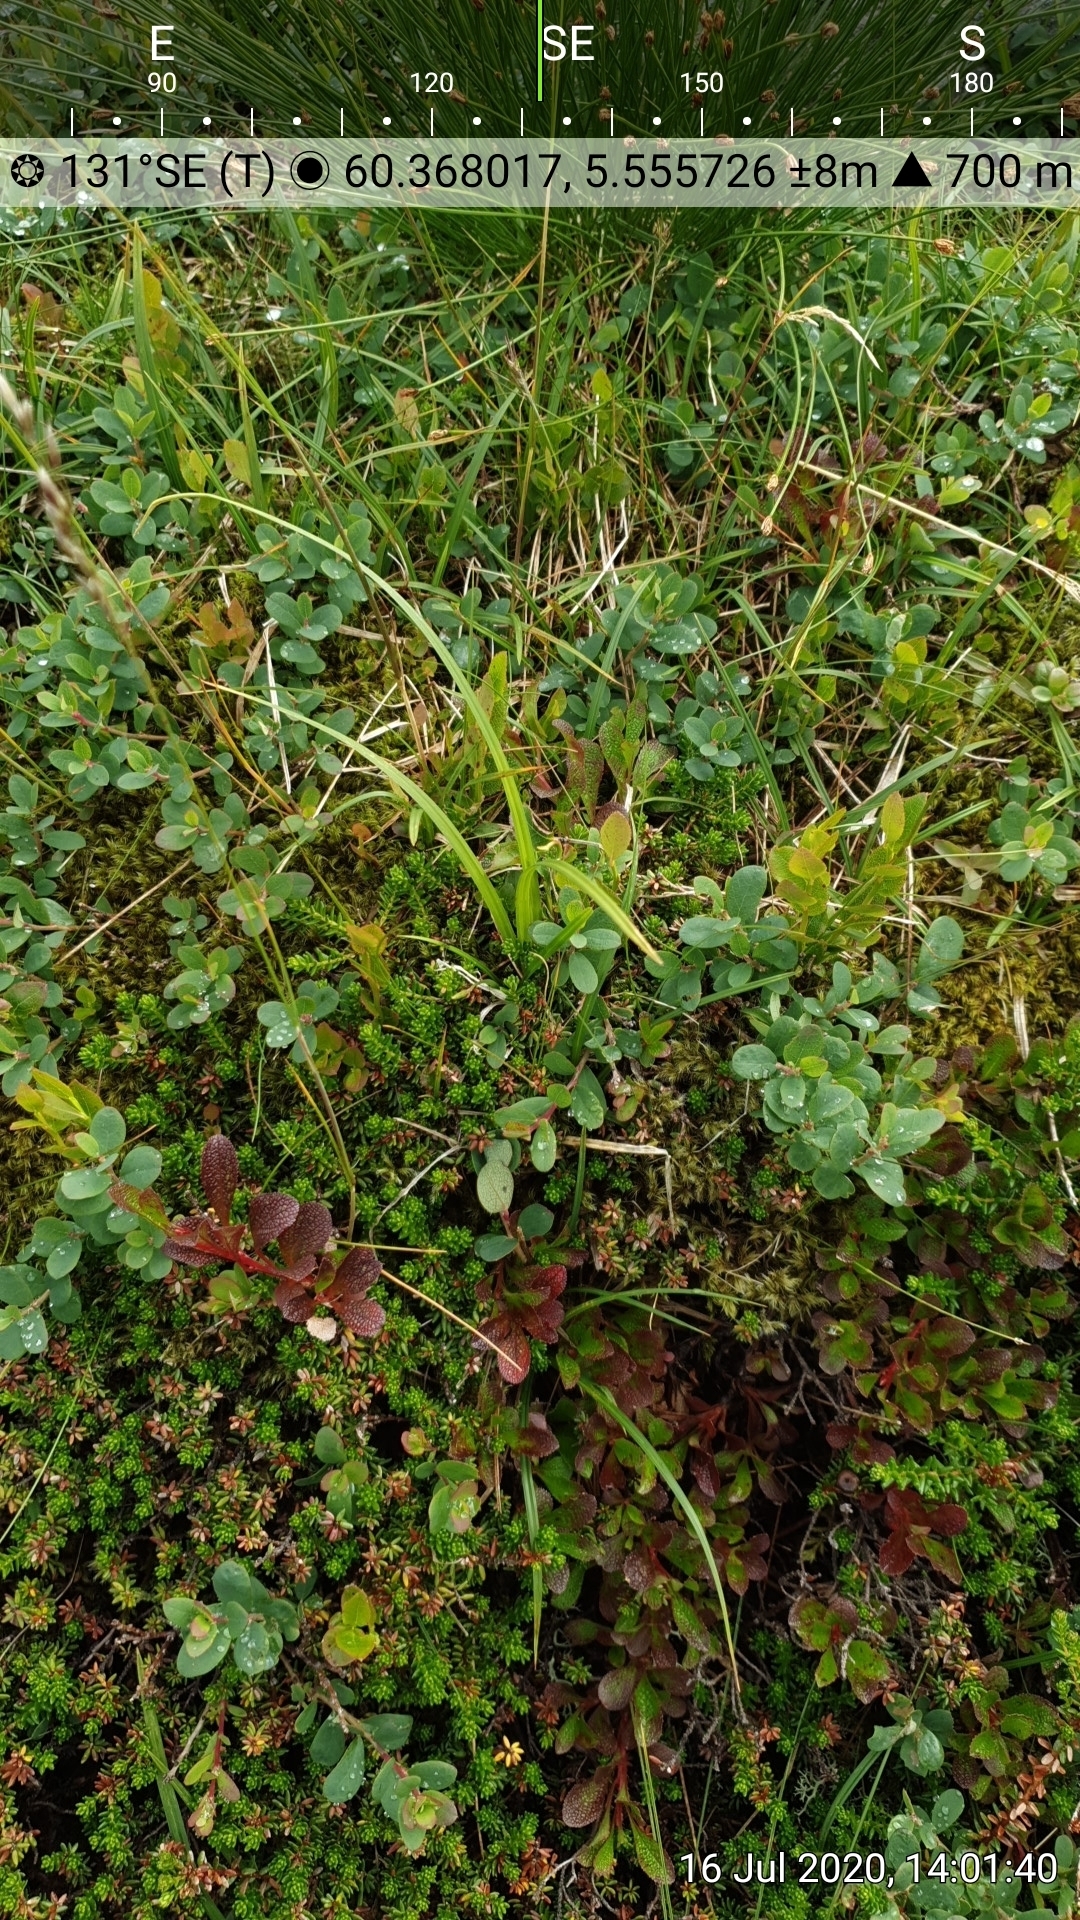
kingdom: Plantae
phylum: Tracheophyta
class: Magnoliopsida
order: Ericales
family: Ericaceae
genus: Arctostaphylos
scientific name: Arctostaphylos alpinus
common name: Alpine bearberry
